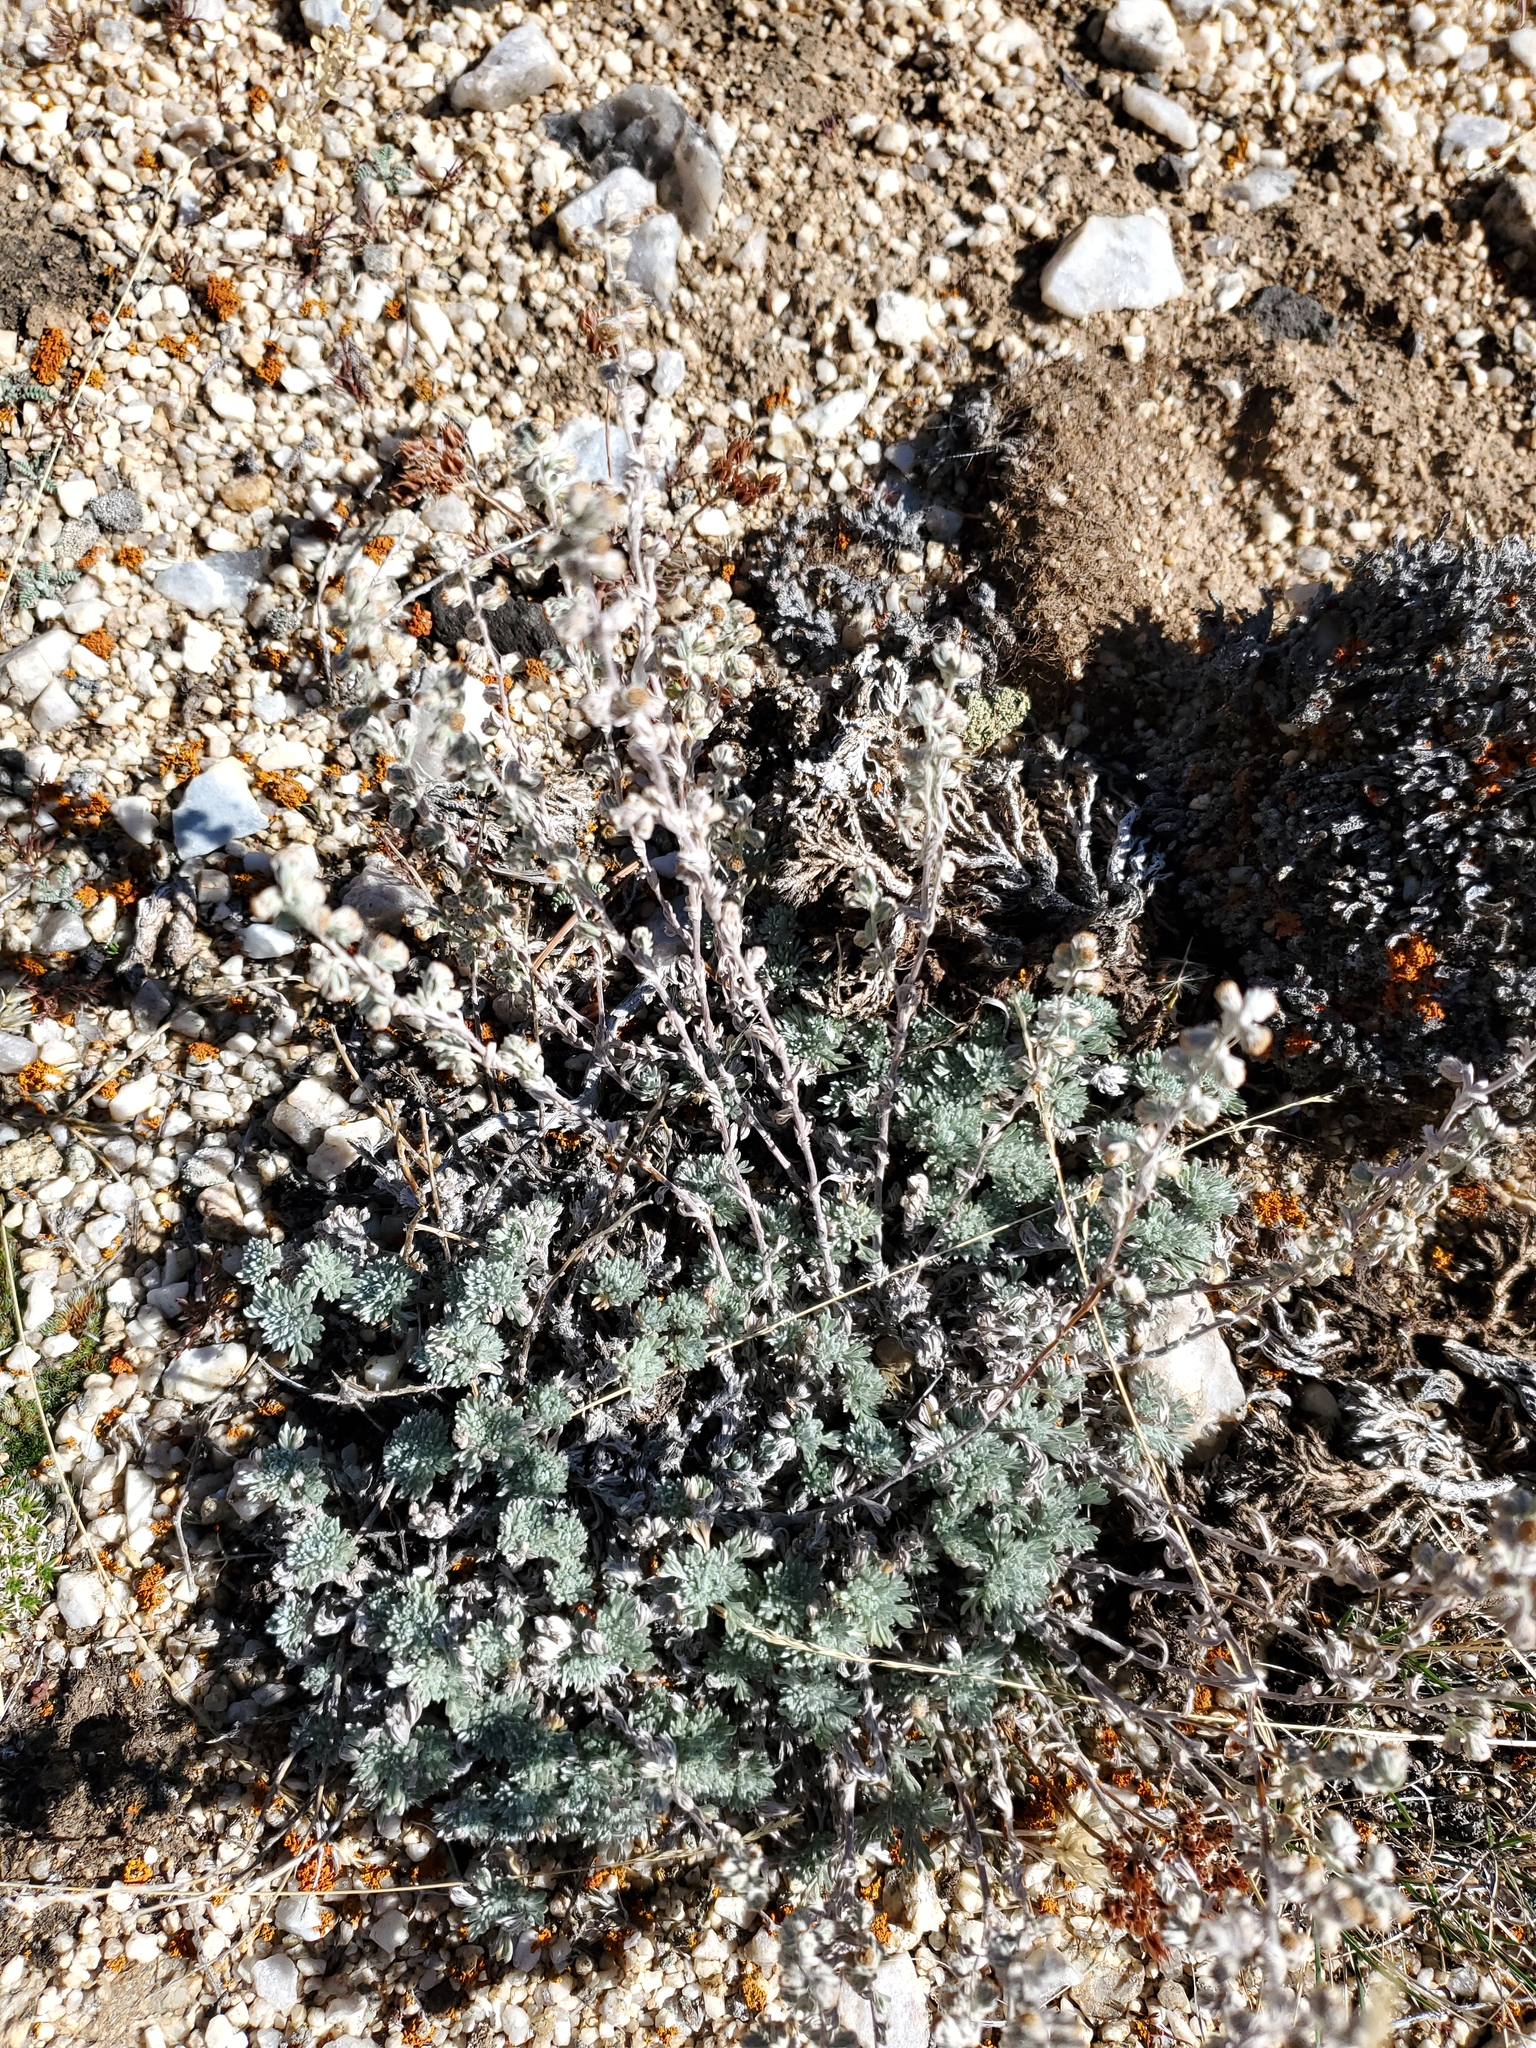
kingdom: Plantae
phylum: Tracheophyta
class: Magnoliopsida
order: Asterales
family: Asteraceae
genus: Artemisia
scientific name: Artemisia frigida
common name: Prairie sagewort
